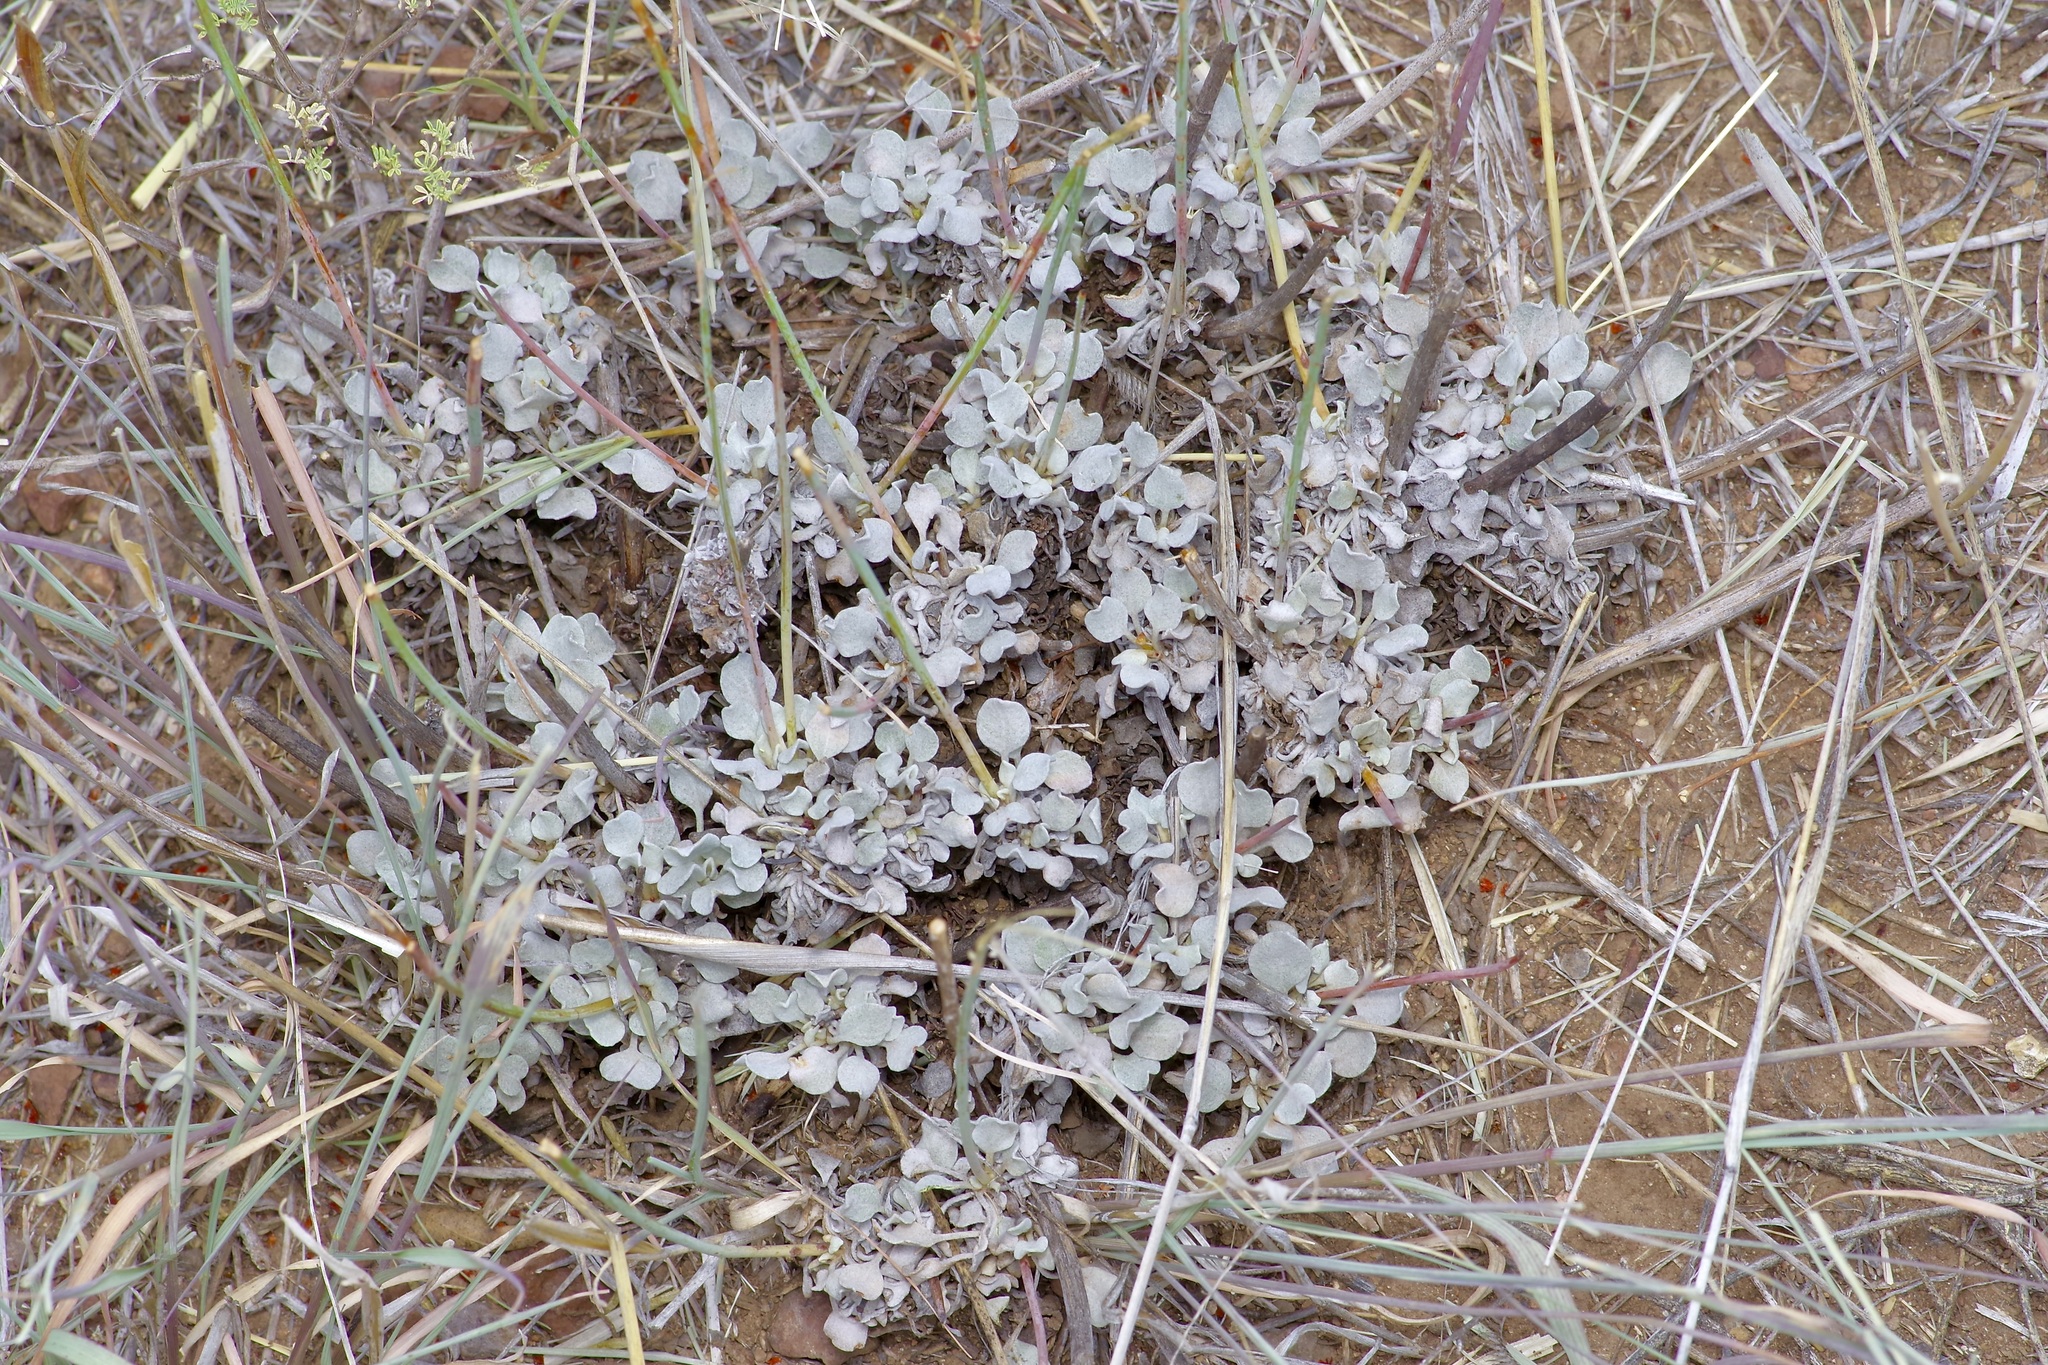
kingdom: Plantae
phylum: Tracheophyta
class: Magnoliopsida
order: Caryophyllales
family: Polygonaceae
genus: Eriogonum
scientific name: Eriogonum tenellum
